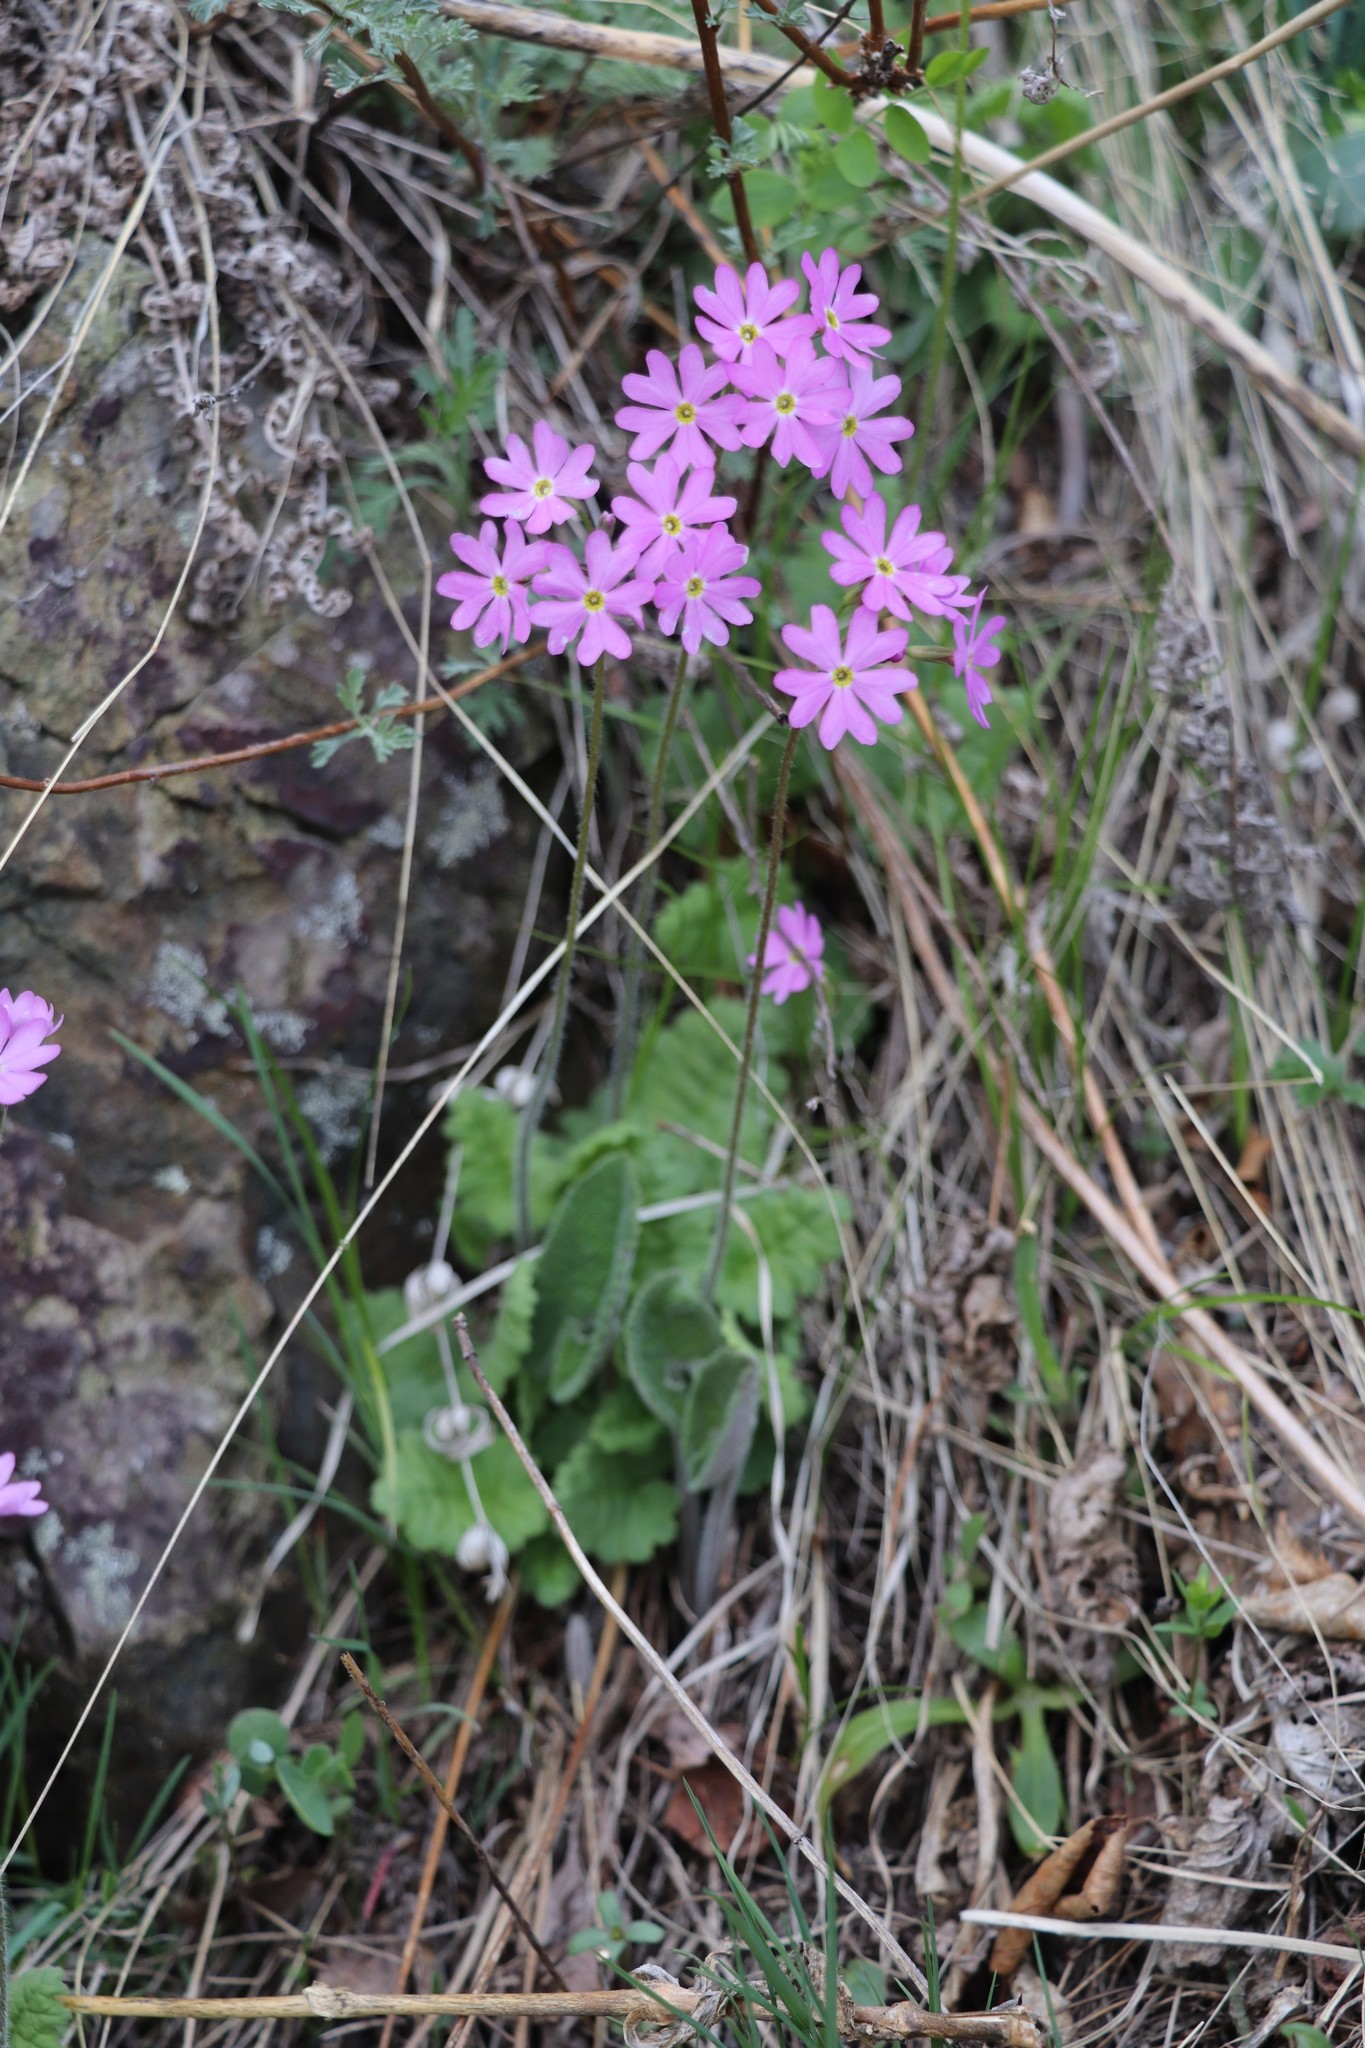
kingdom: Plantae
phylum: Tracheophyta
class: Magnoliopsida
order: Ericales
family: Primulaceae
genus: Primula
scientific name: Primula cortusoides
